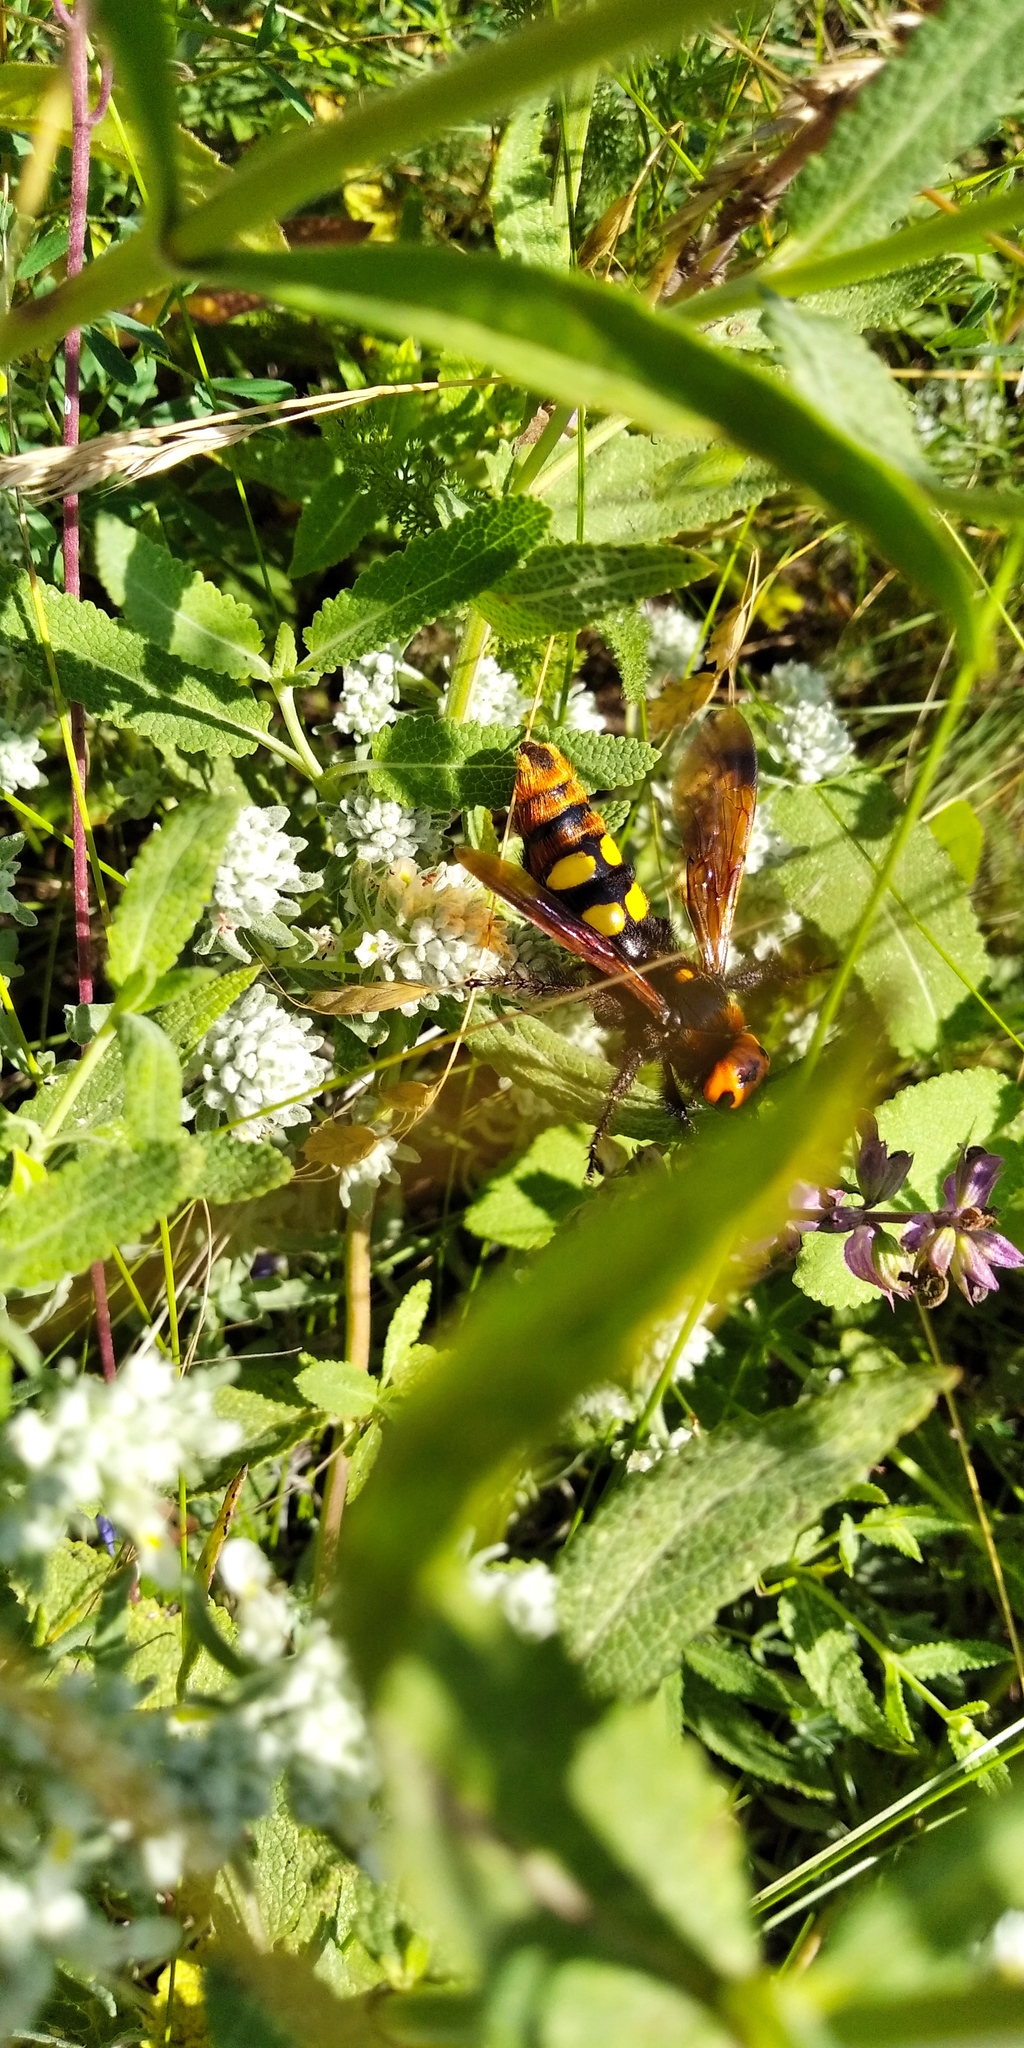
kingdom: Animalia
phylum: Arthropoda
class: Insecta
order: Hymenoptera
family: Scoliidae
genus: Megascolia
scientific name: Megascolia maculata
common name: Mammoth wasp
